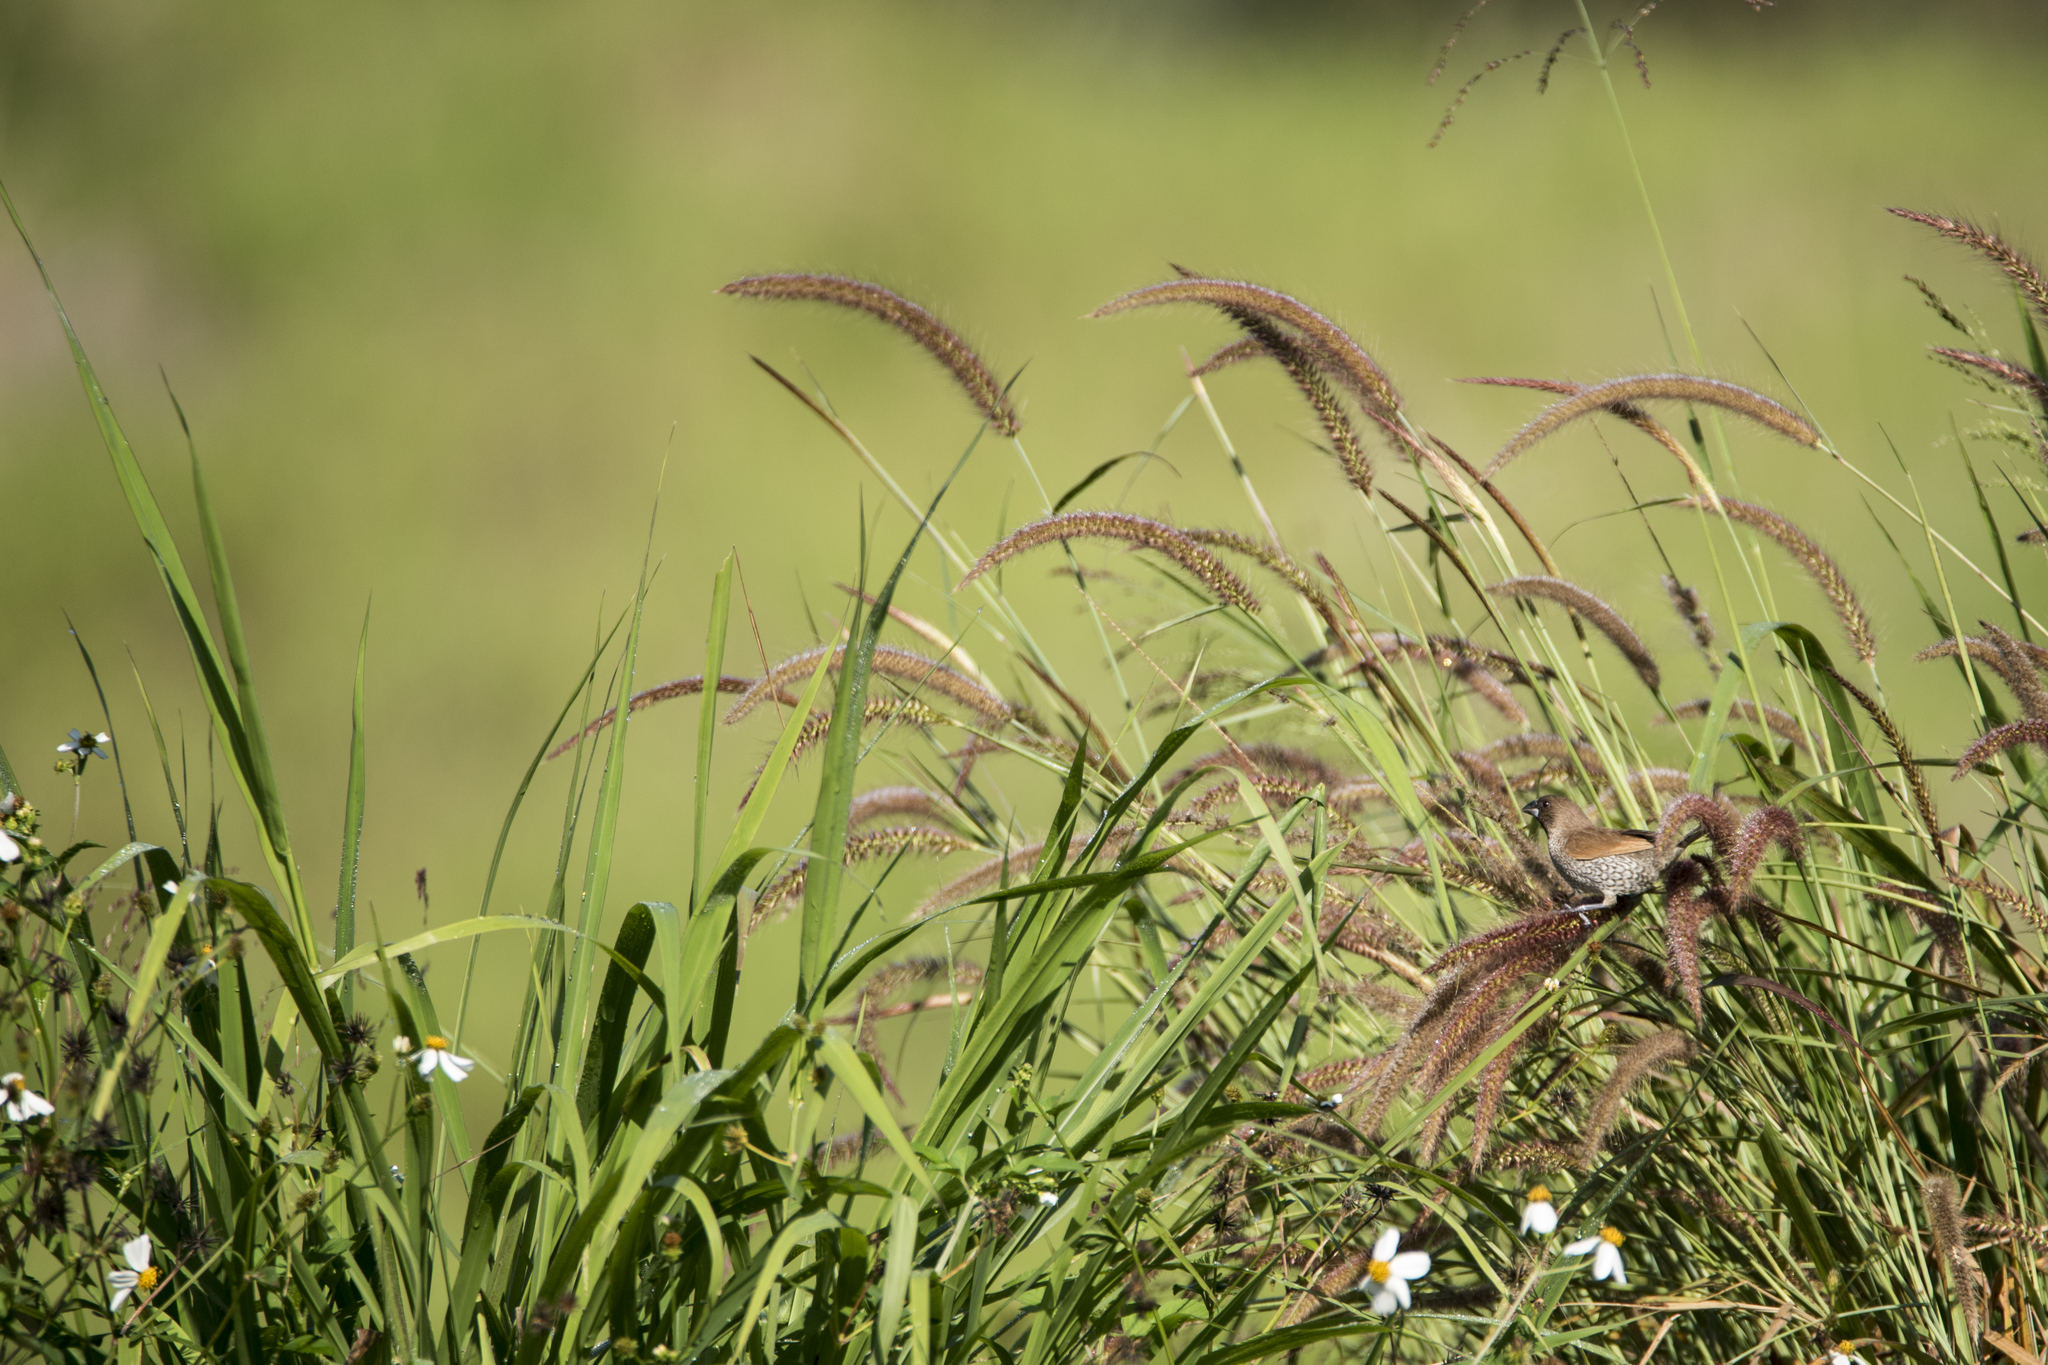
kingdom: Animalia
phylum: Chordata
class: Aves
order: Passeriformes
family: Estrildidae
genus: Lonchura
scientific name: Lonchura punctulata
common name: Scaly-breasted munia
